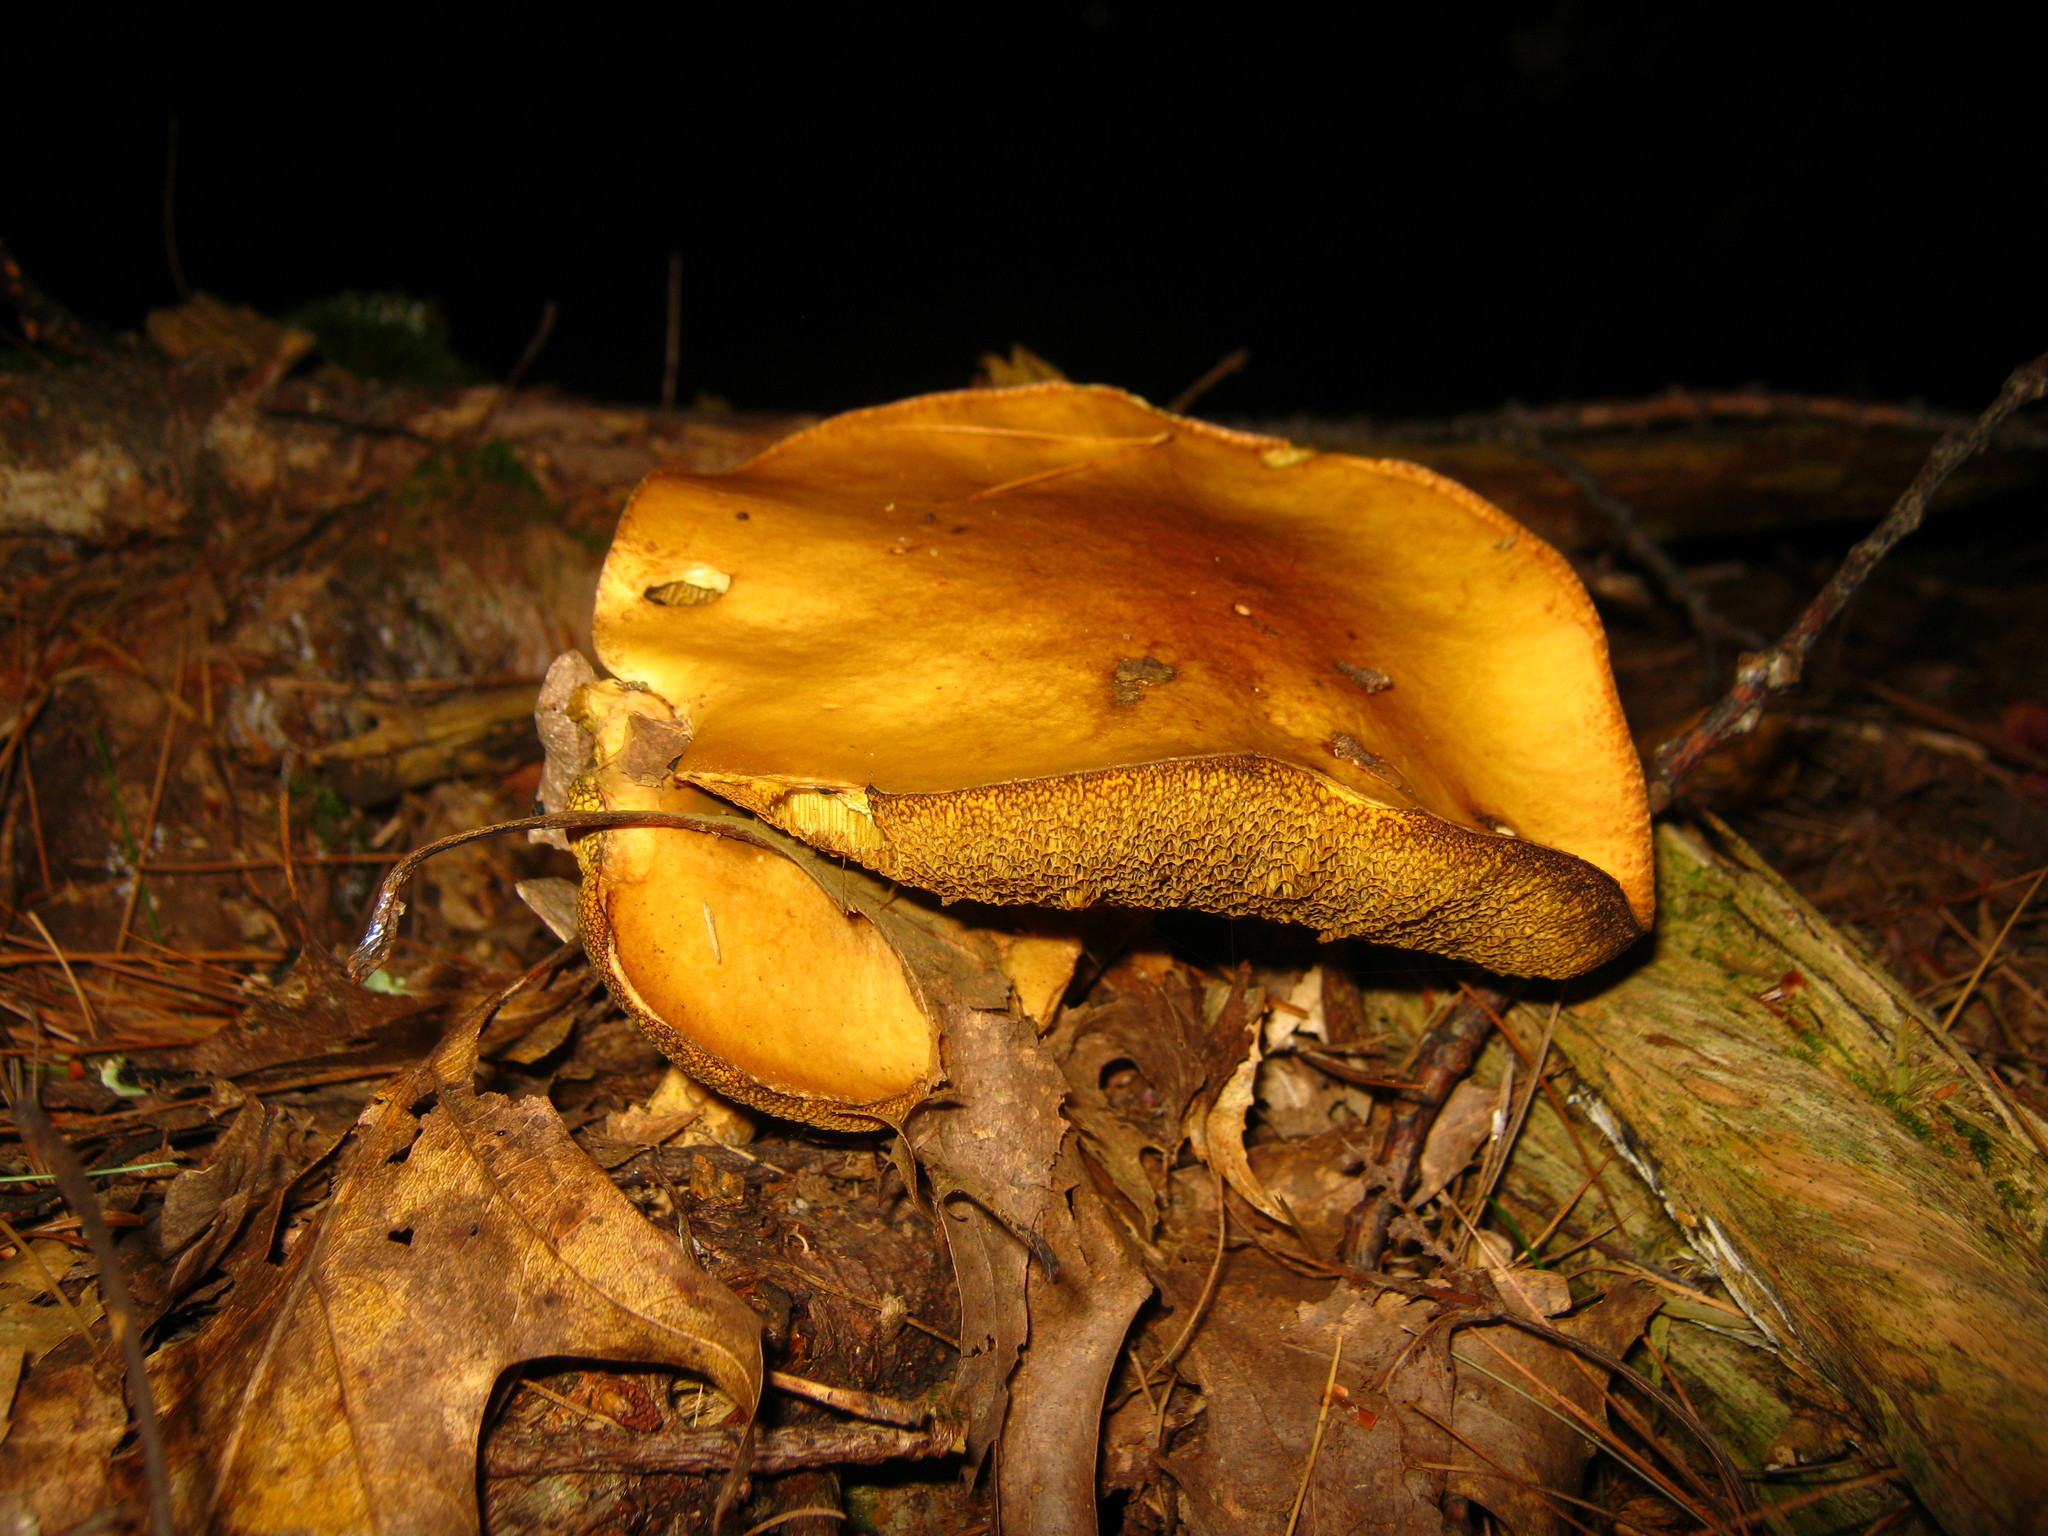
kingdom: Fungi
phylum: Basidiomycota
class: Agaricomycetes
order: Boletales
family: Suillaceae
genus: Suillus
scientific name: Suillus punctipes
